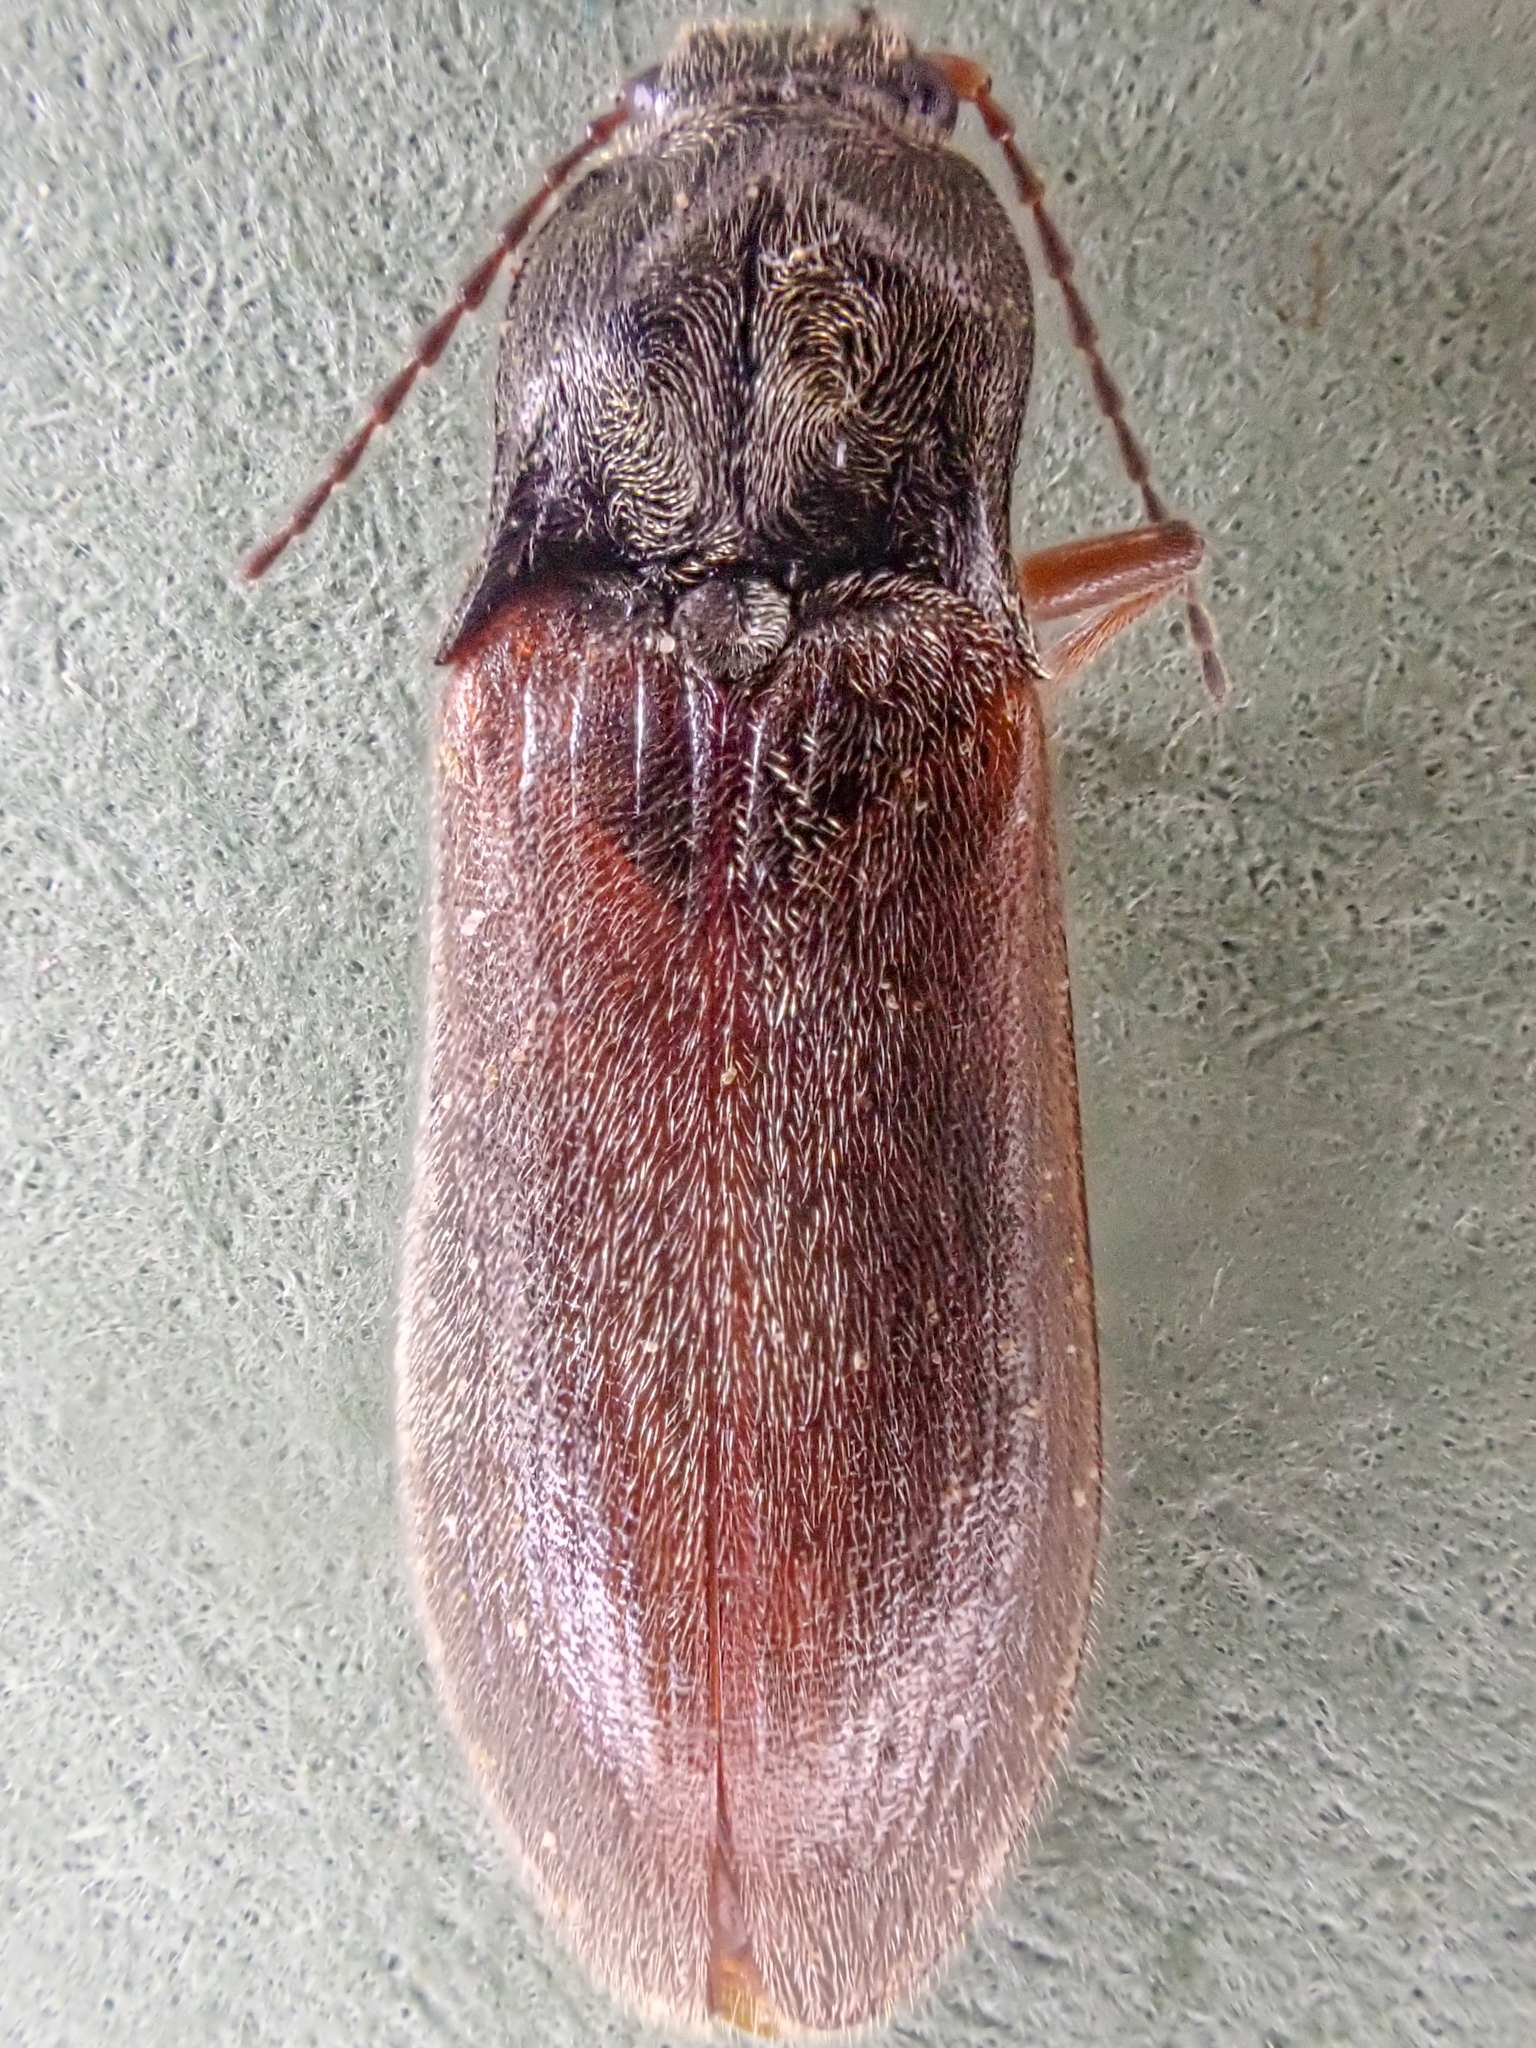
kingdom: Animalia
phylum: Arthropoda
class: Insecta
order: Coleoptera
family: Elateridae
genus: Metanomus
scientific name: Metanomus insidiosus
